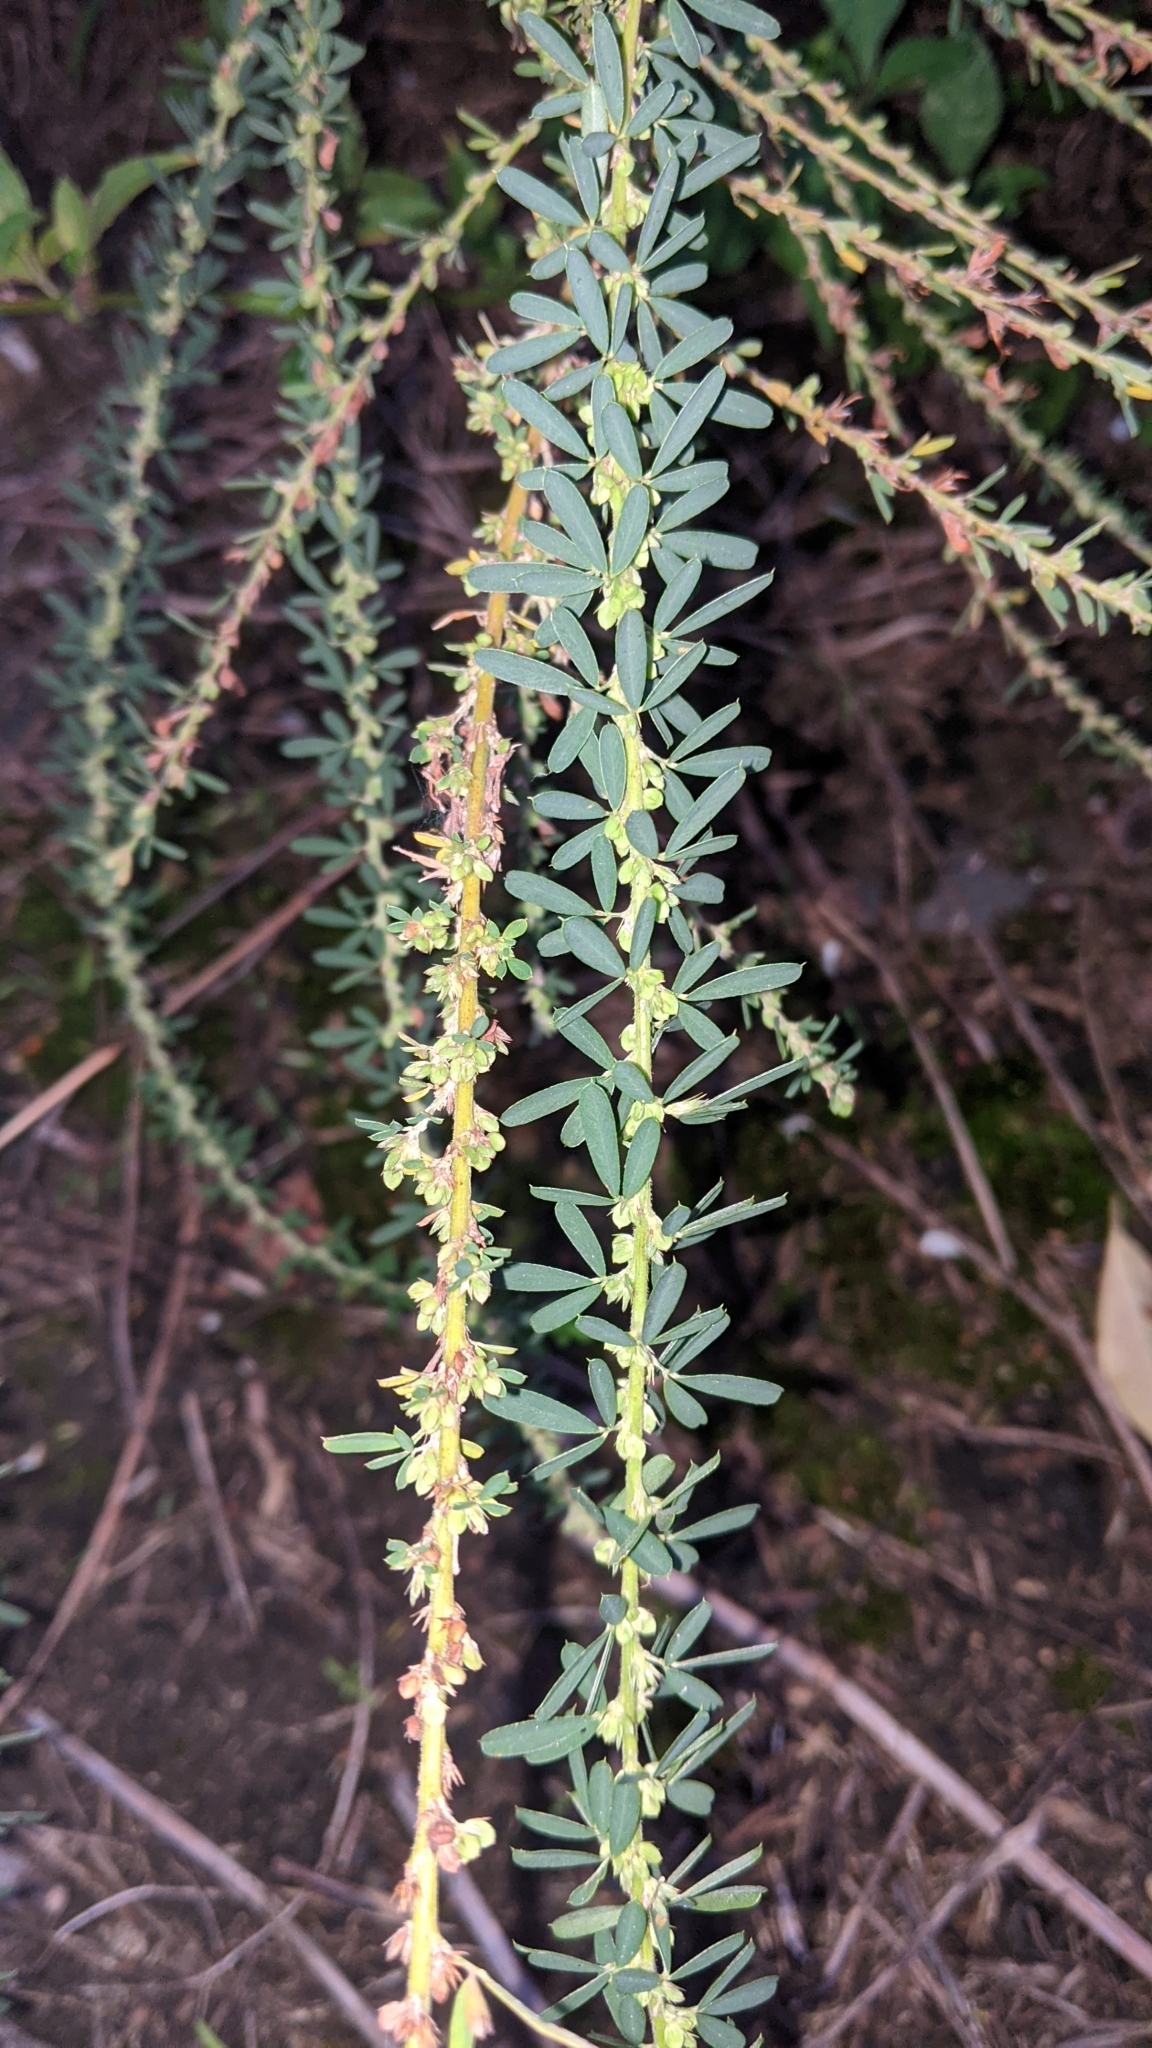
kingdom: Plantae
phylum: Tracheophyta
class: Magnoliopsida
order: Fabales
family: Fabaceae
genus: Lespedeza
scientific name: Lespedeza cuneata
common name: Chinese bush-clover
